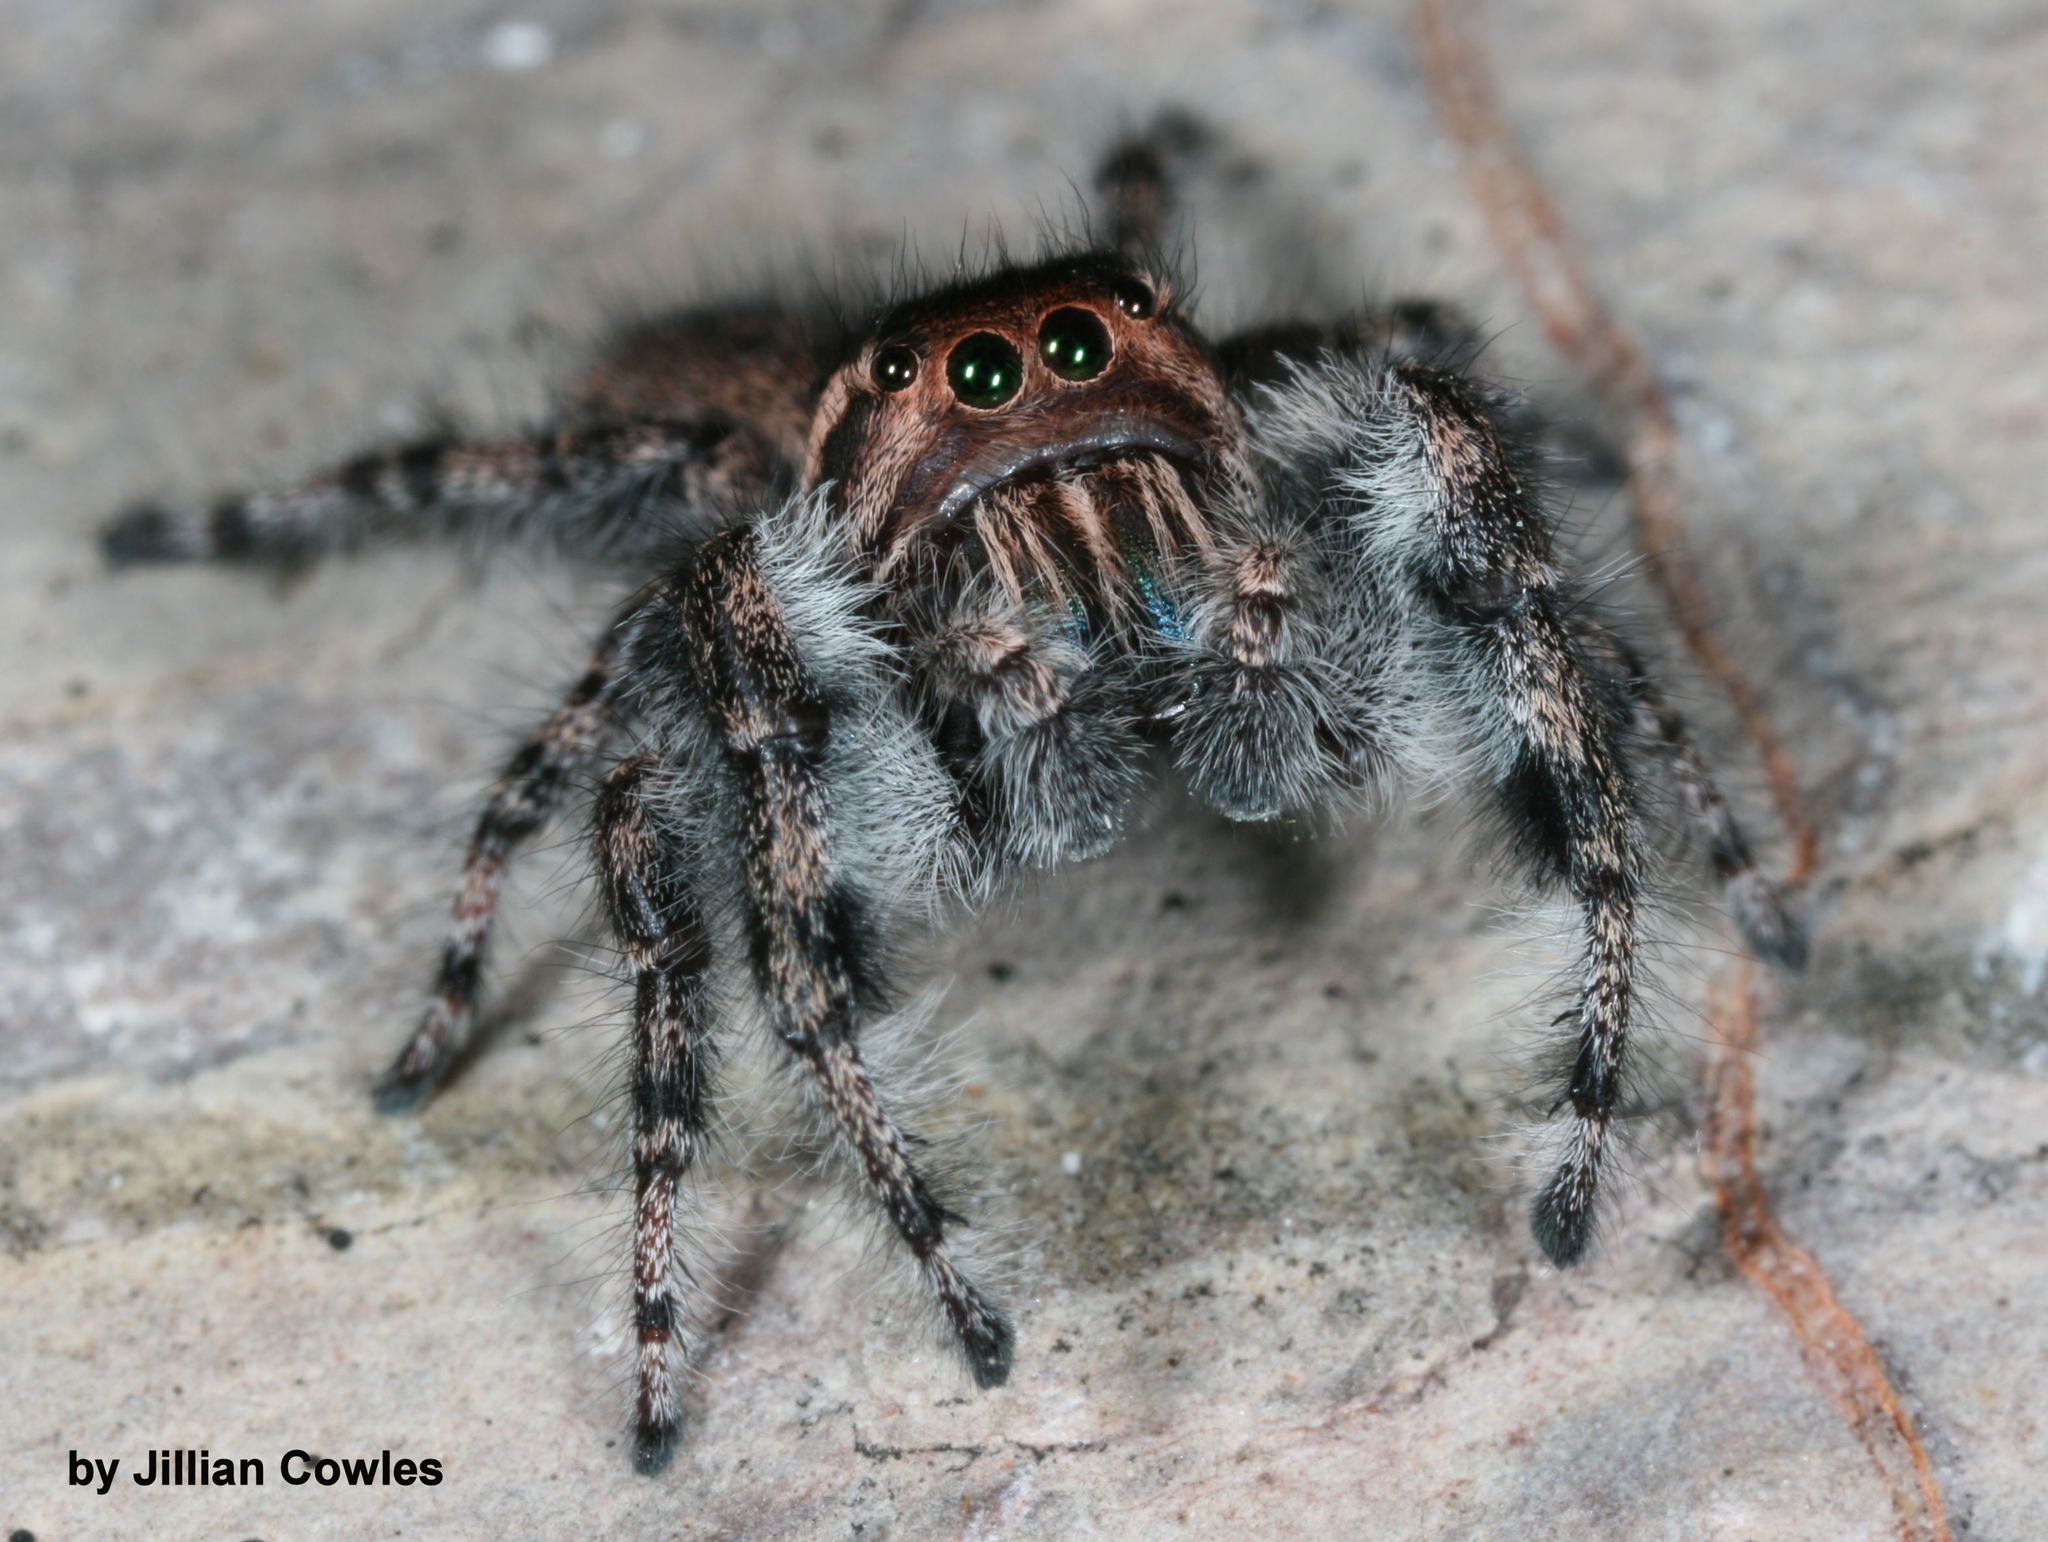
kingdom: Animalia
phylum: Arthropoda
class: Arachnida
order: Araneae
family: Salticidae
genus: Phidippus
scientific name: Phidippus asotus
